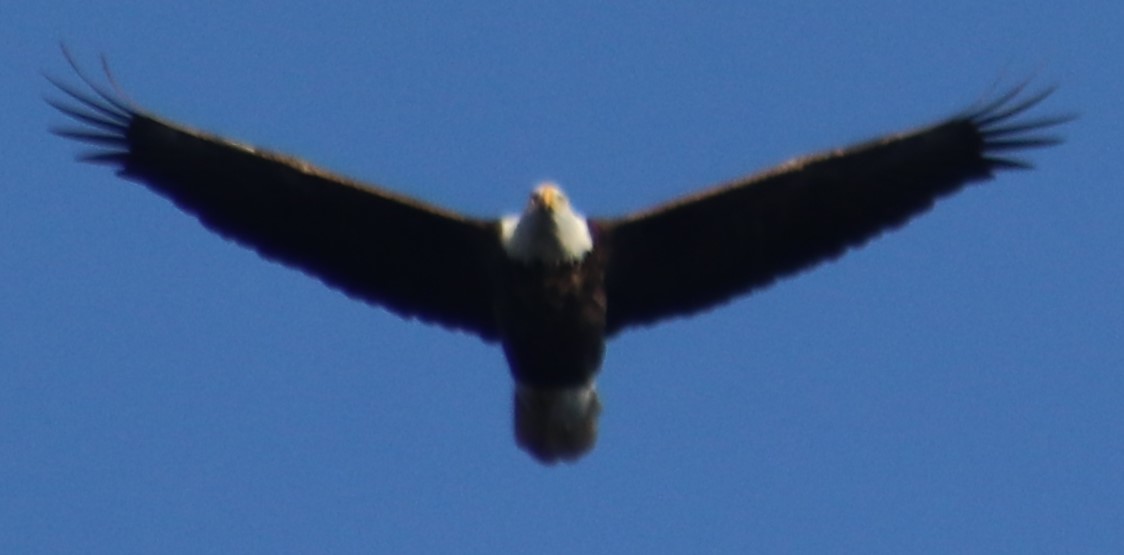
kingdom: Animalia
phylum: Chordata
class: Aves
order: Accipitriformes
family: Accipitridae
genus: Haliaeetus
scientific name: Haliaeetus leucocephalus
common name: Bald eagle
